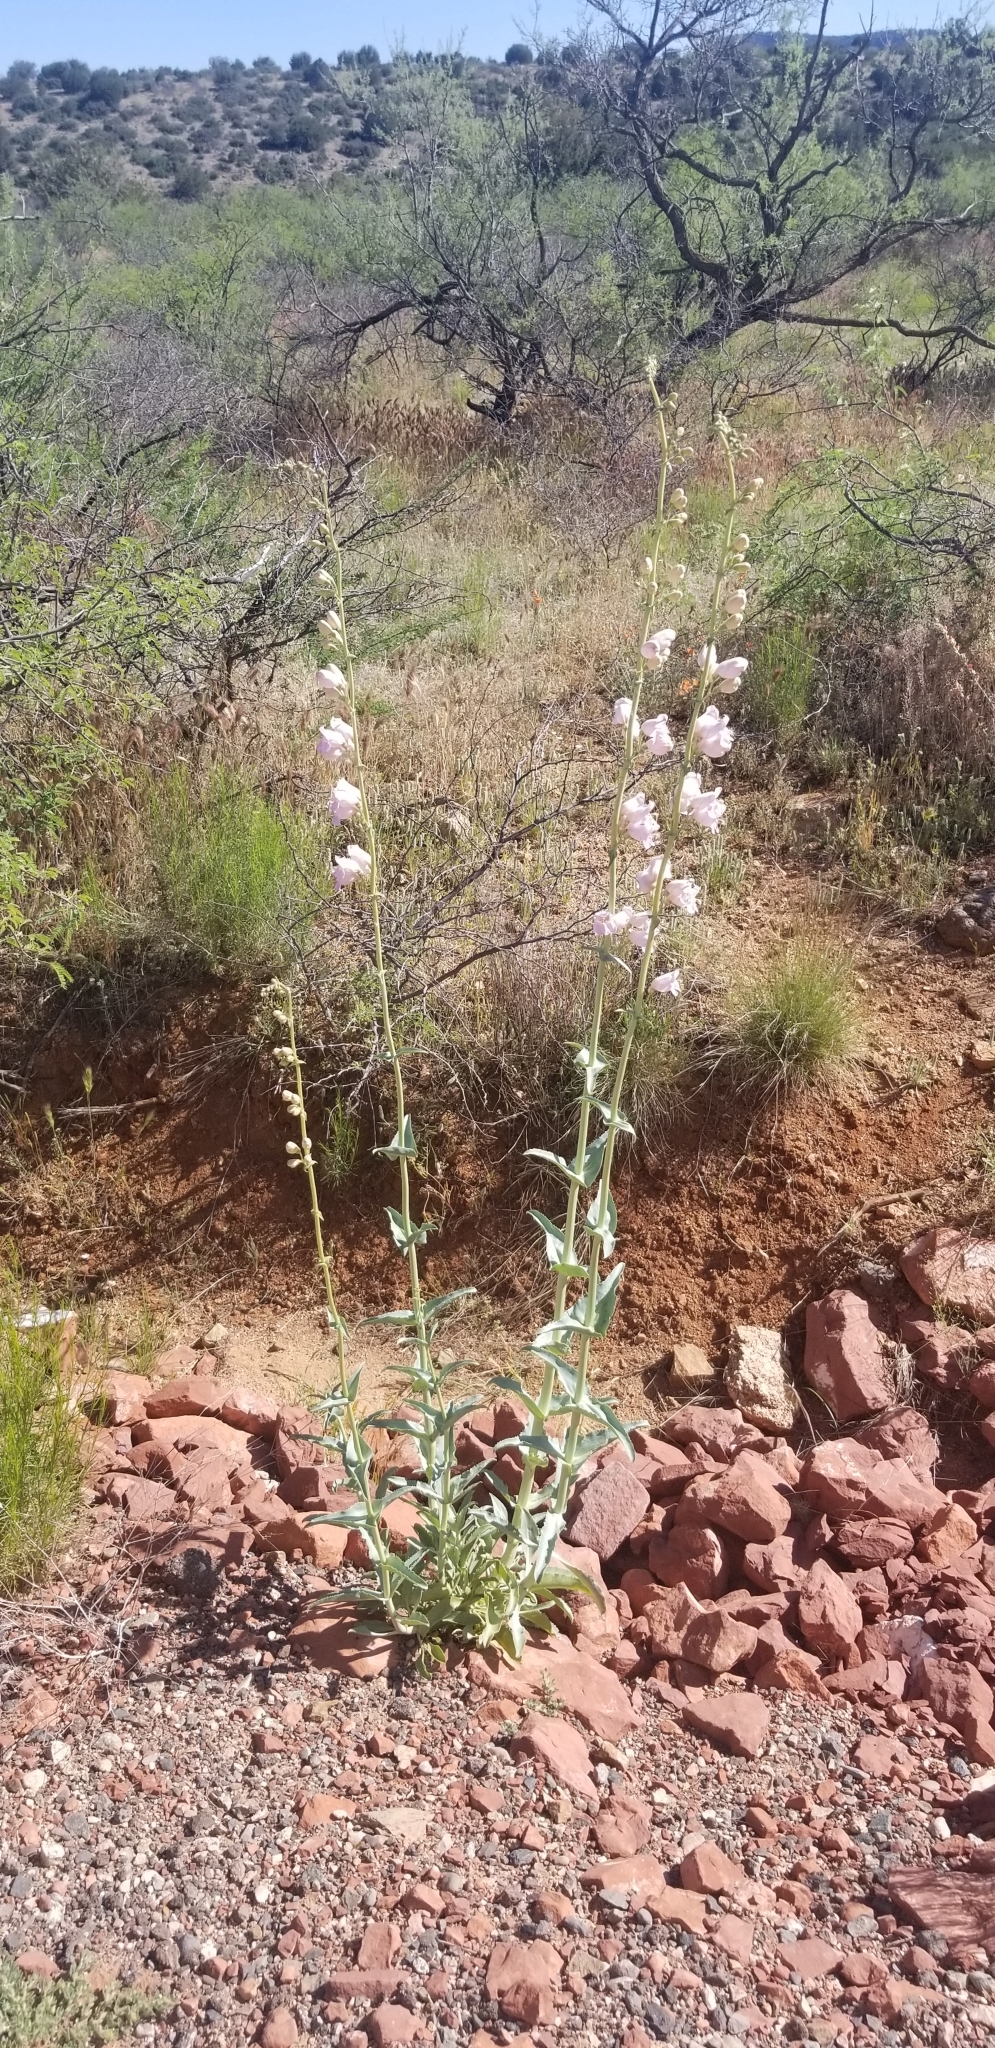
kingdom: Plantae
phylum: Tracheophyta
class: Magnoliopsida
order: Lamiales
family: Plantaginaceae
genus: Penstemon
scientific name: Penstemon palmeri
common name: Palmer penstemon
